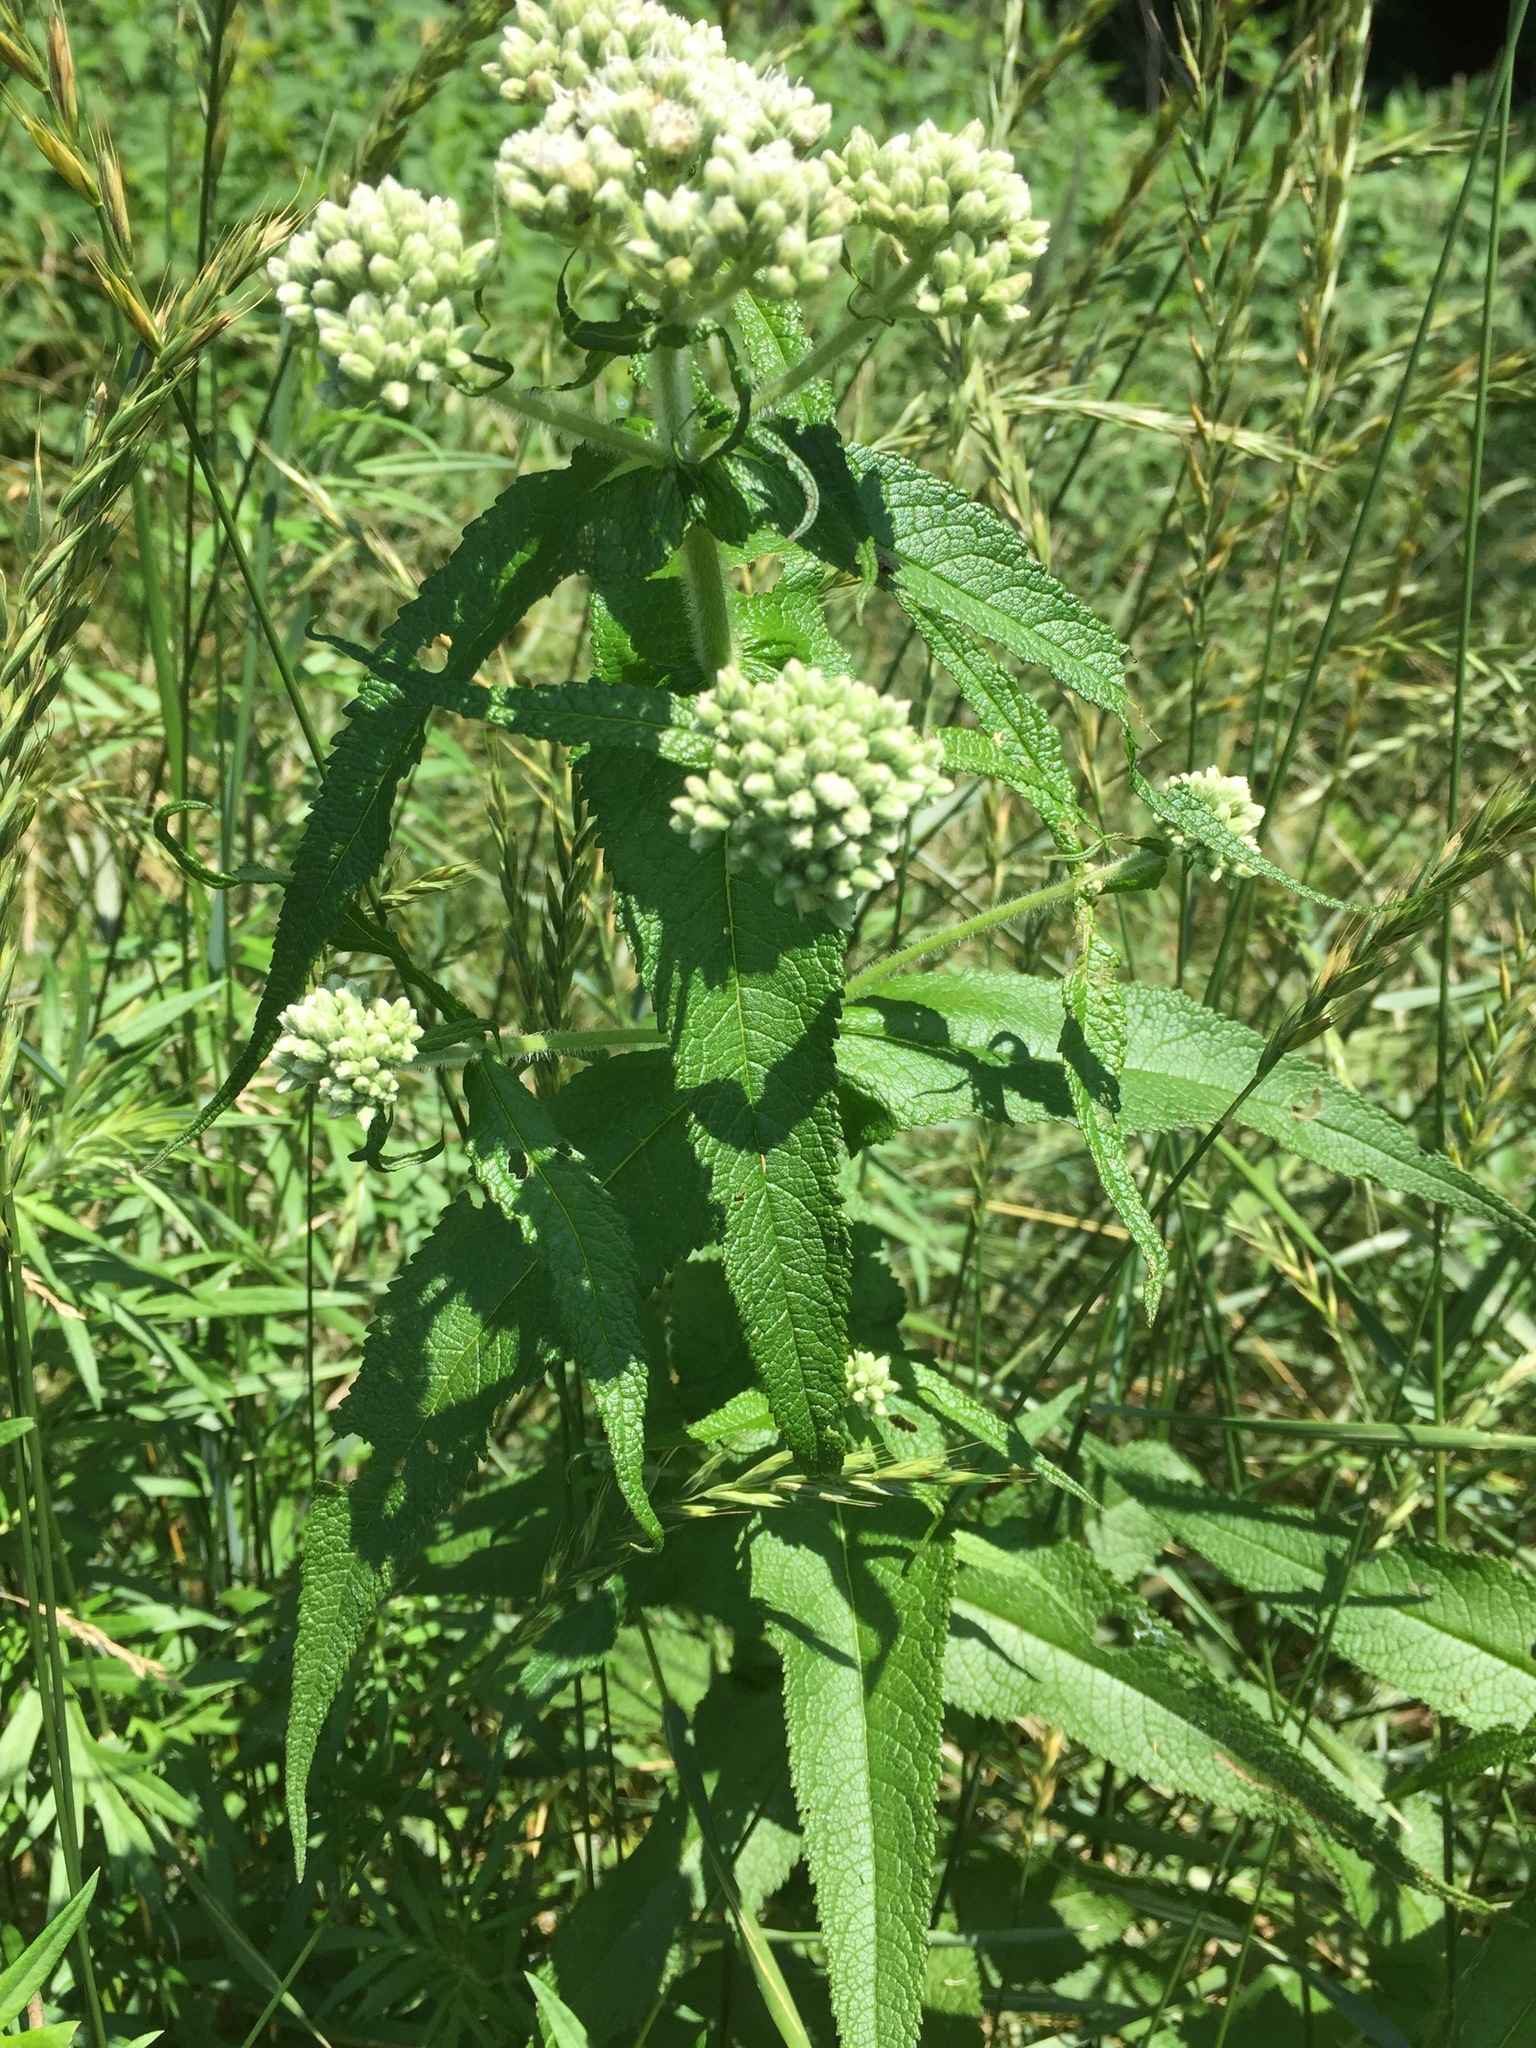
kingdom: Plantae
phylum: Tracheophyta
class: Magnoliopsida
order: Asterales
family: Asteraceae
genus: Eupatorium
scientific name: Eupatorium perfoliatum
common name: Boneset
